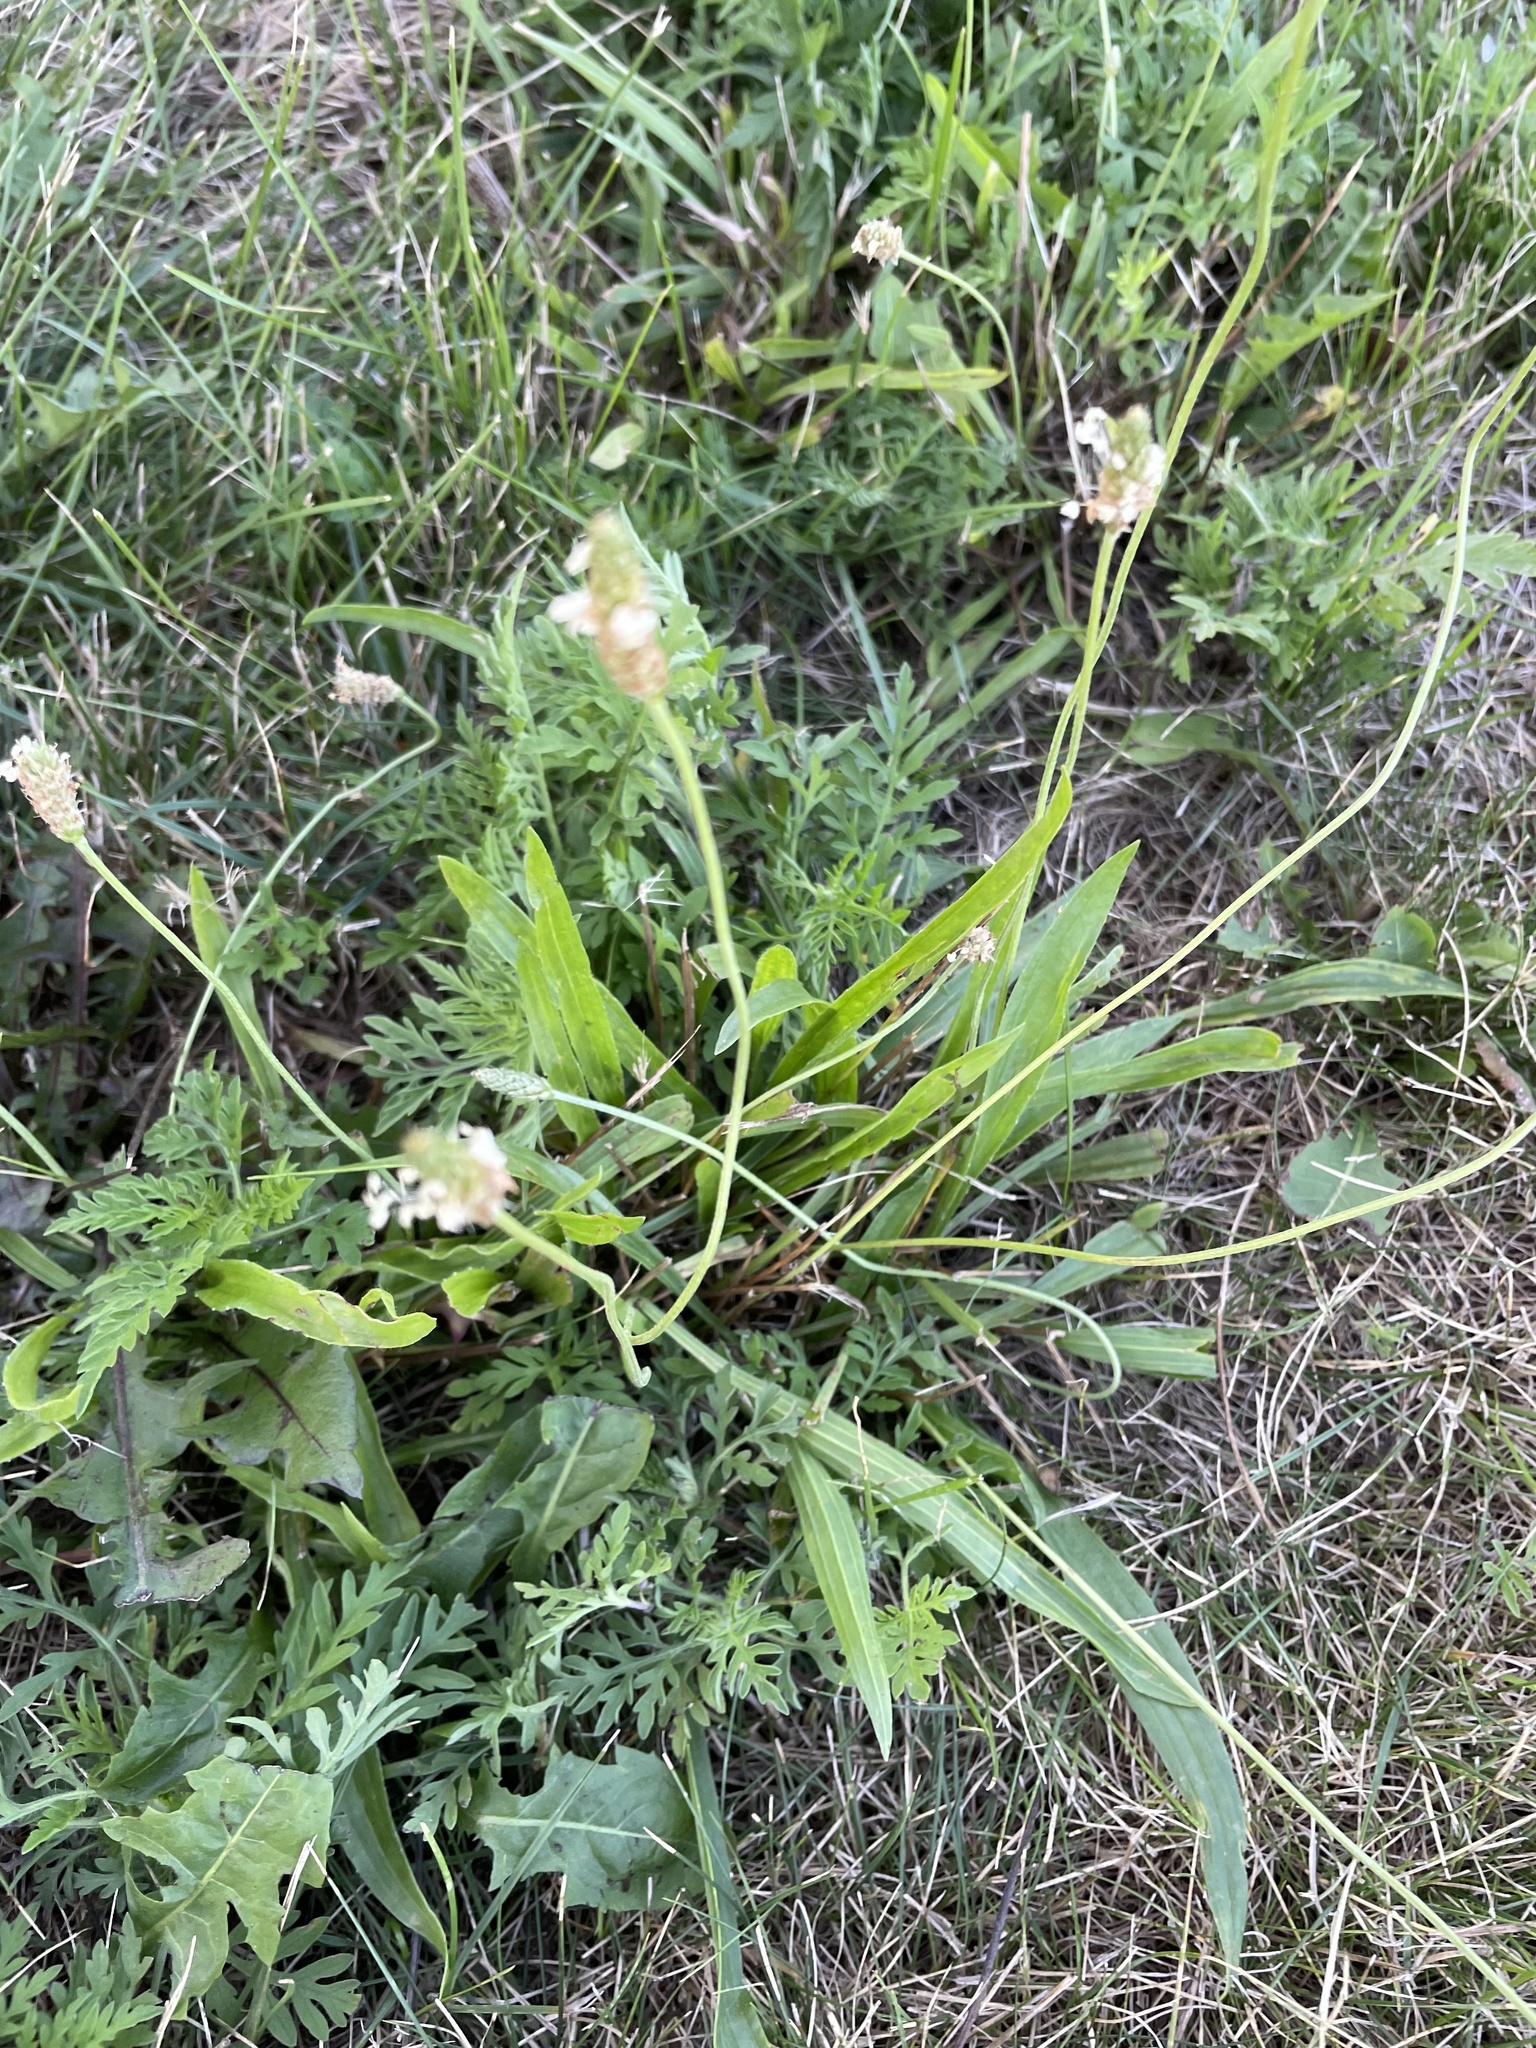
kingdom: Plantae
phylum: Tracheophyta
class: Magnoliopsida
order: Lamiales
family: Plantaginaceae
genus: Plantago
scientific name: Plantago lanceolata
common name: Ribwort plantain
